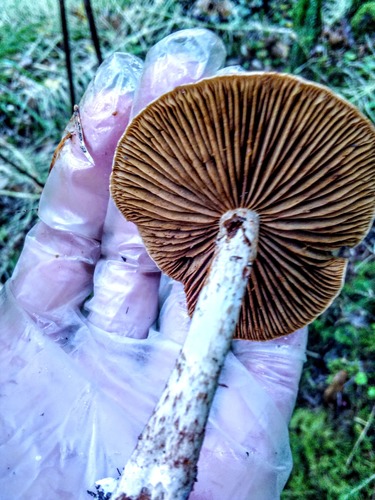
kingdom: Fungi
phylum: Basidiomycota
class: Agaricomycetes
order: Agaricales
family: Cortinariaceae
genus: Cortinarius
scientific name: Cortinarius
